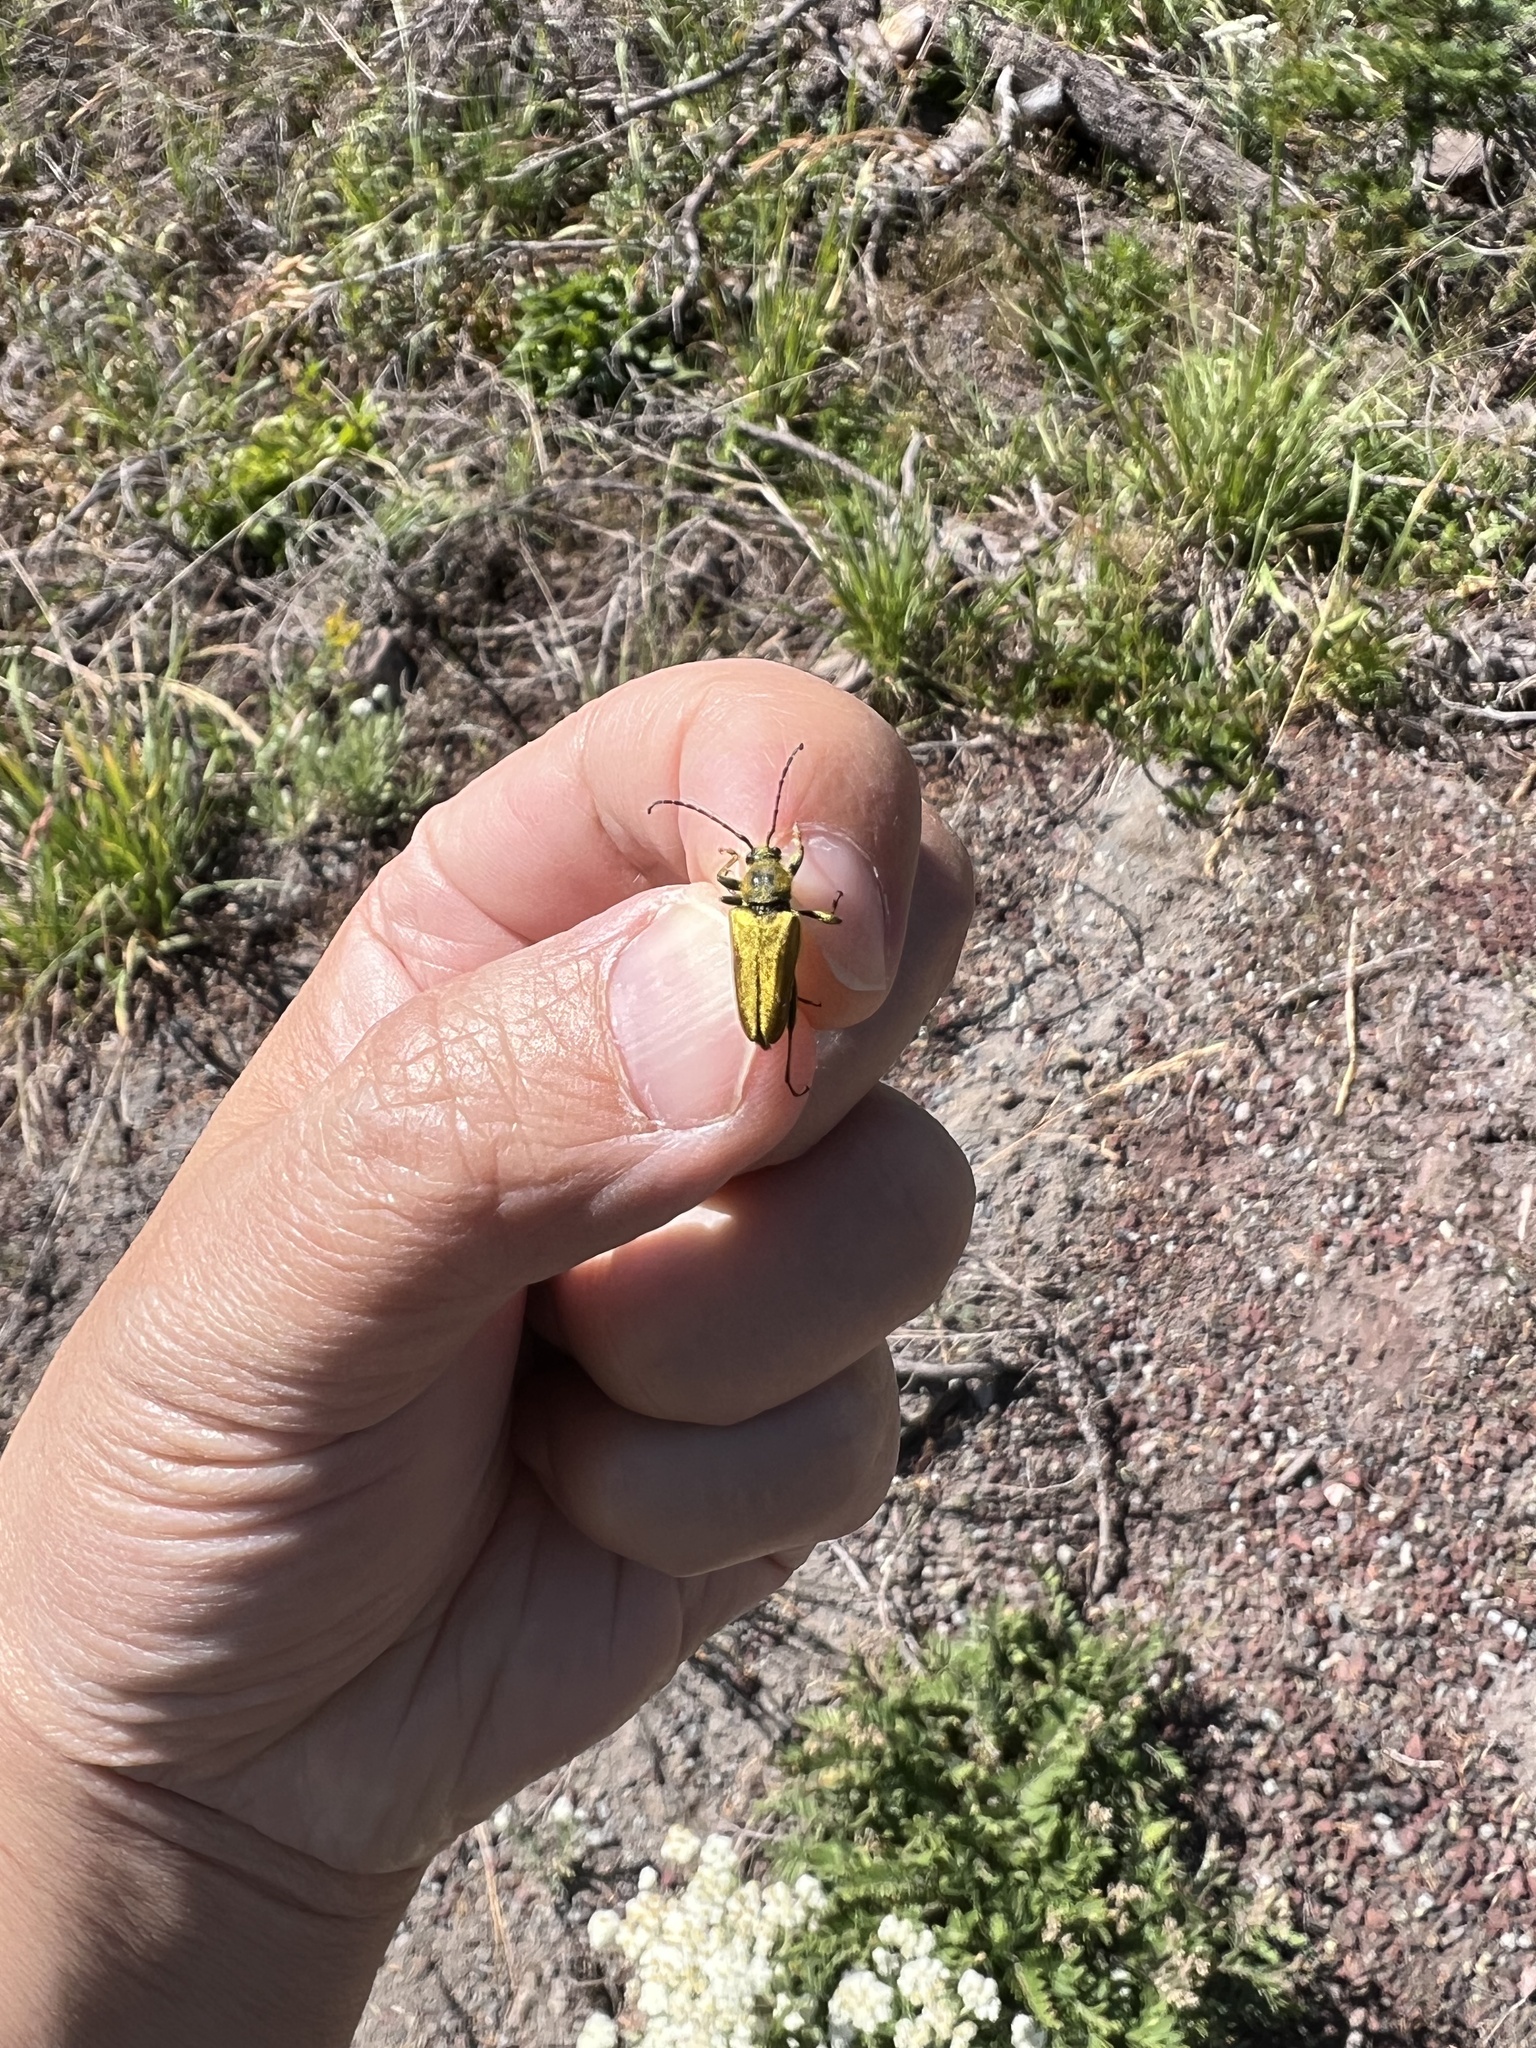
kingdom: Animalia
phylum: Arthropoda
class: Insecta
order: Coleoptera
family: Cerambycidae
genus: Cosmosalia
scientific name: Cosmosalia chrysocoma
